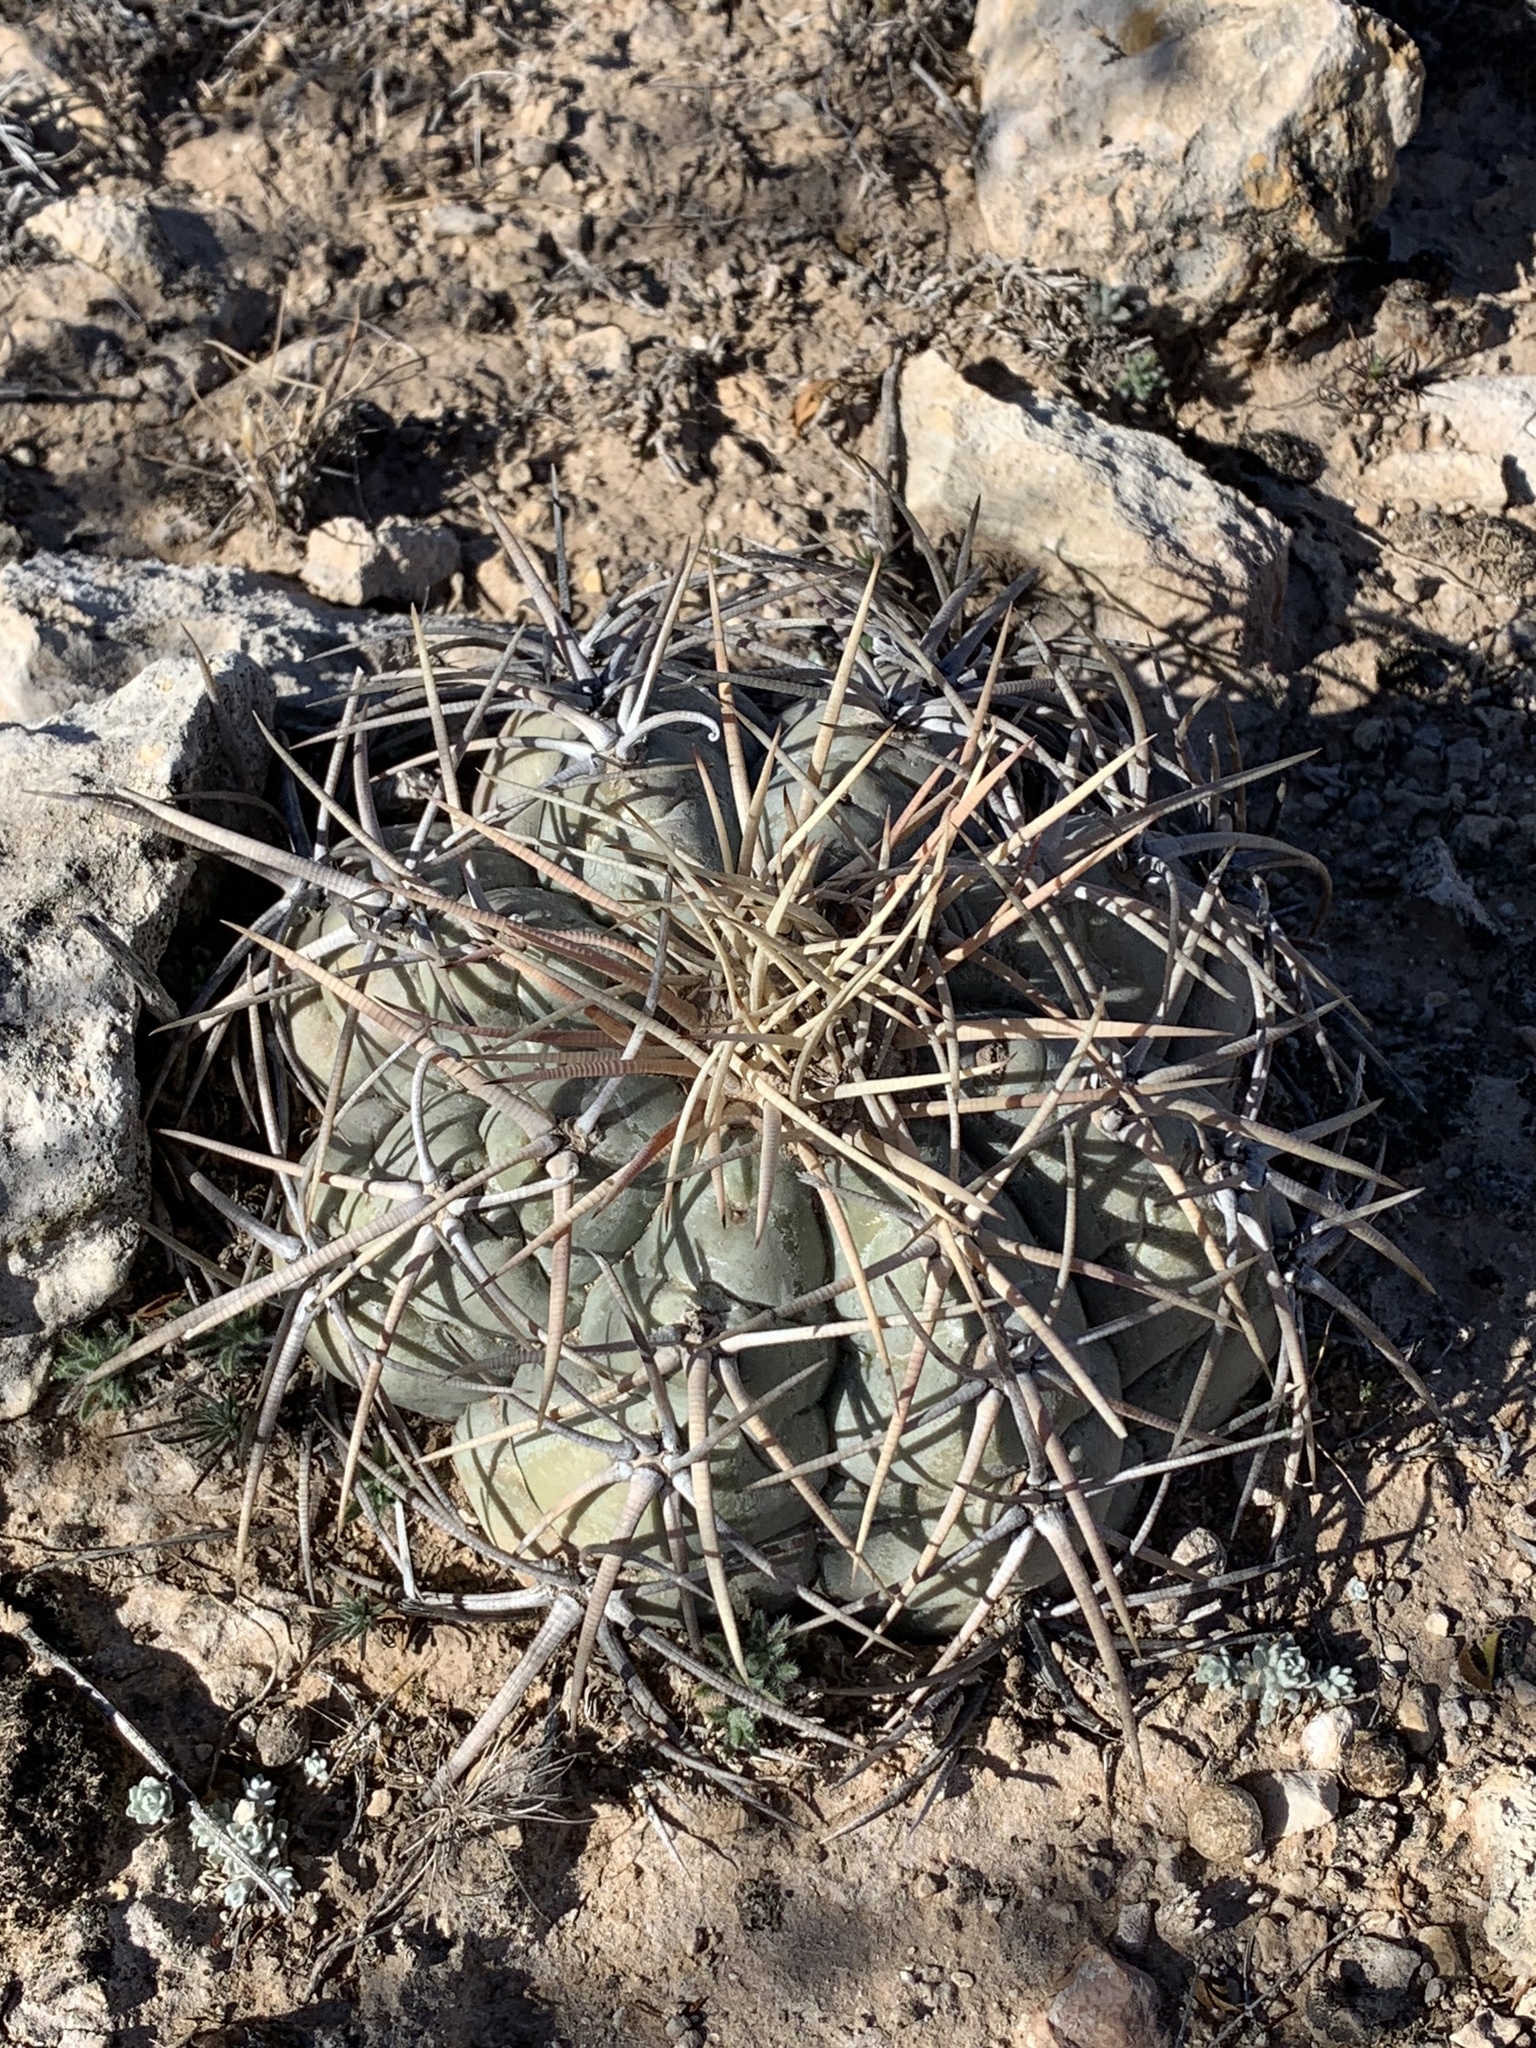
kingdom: Plantae
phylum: Tracheophyta
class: Magnoliopsida
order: Caryophyllales
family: Cactaceae
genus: Echinocactus
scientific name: Echinocactus horizonthalonius
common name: Devilshead
